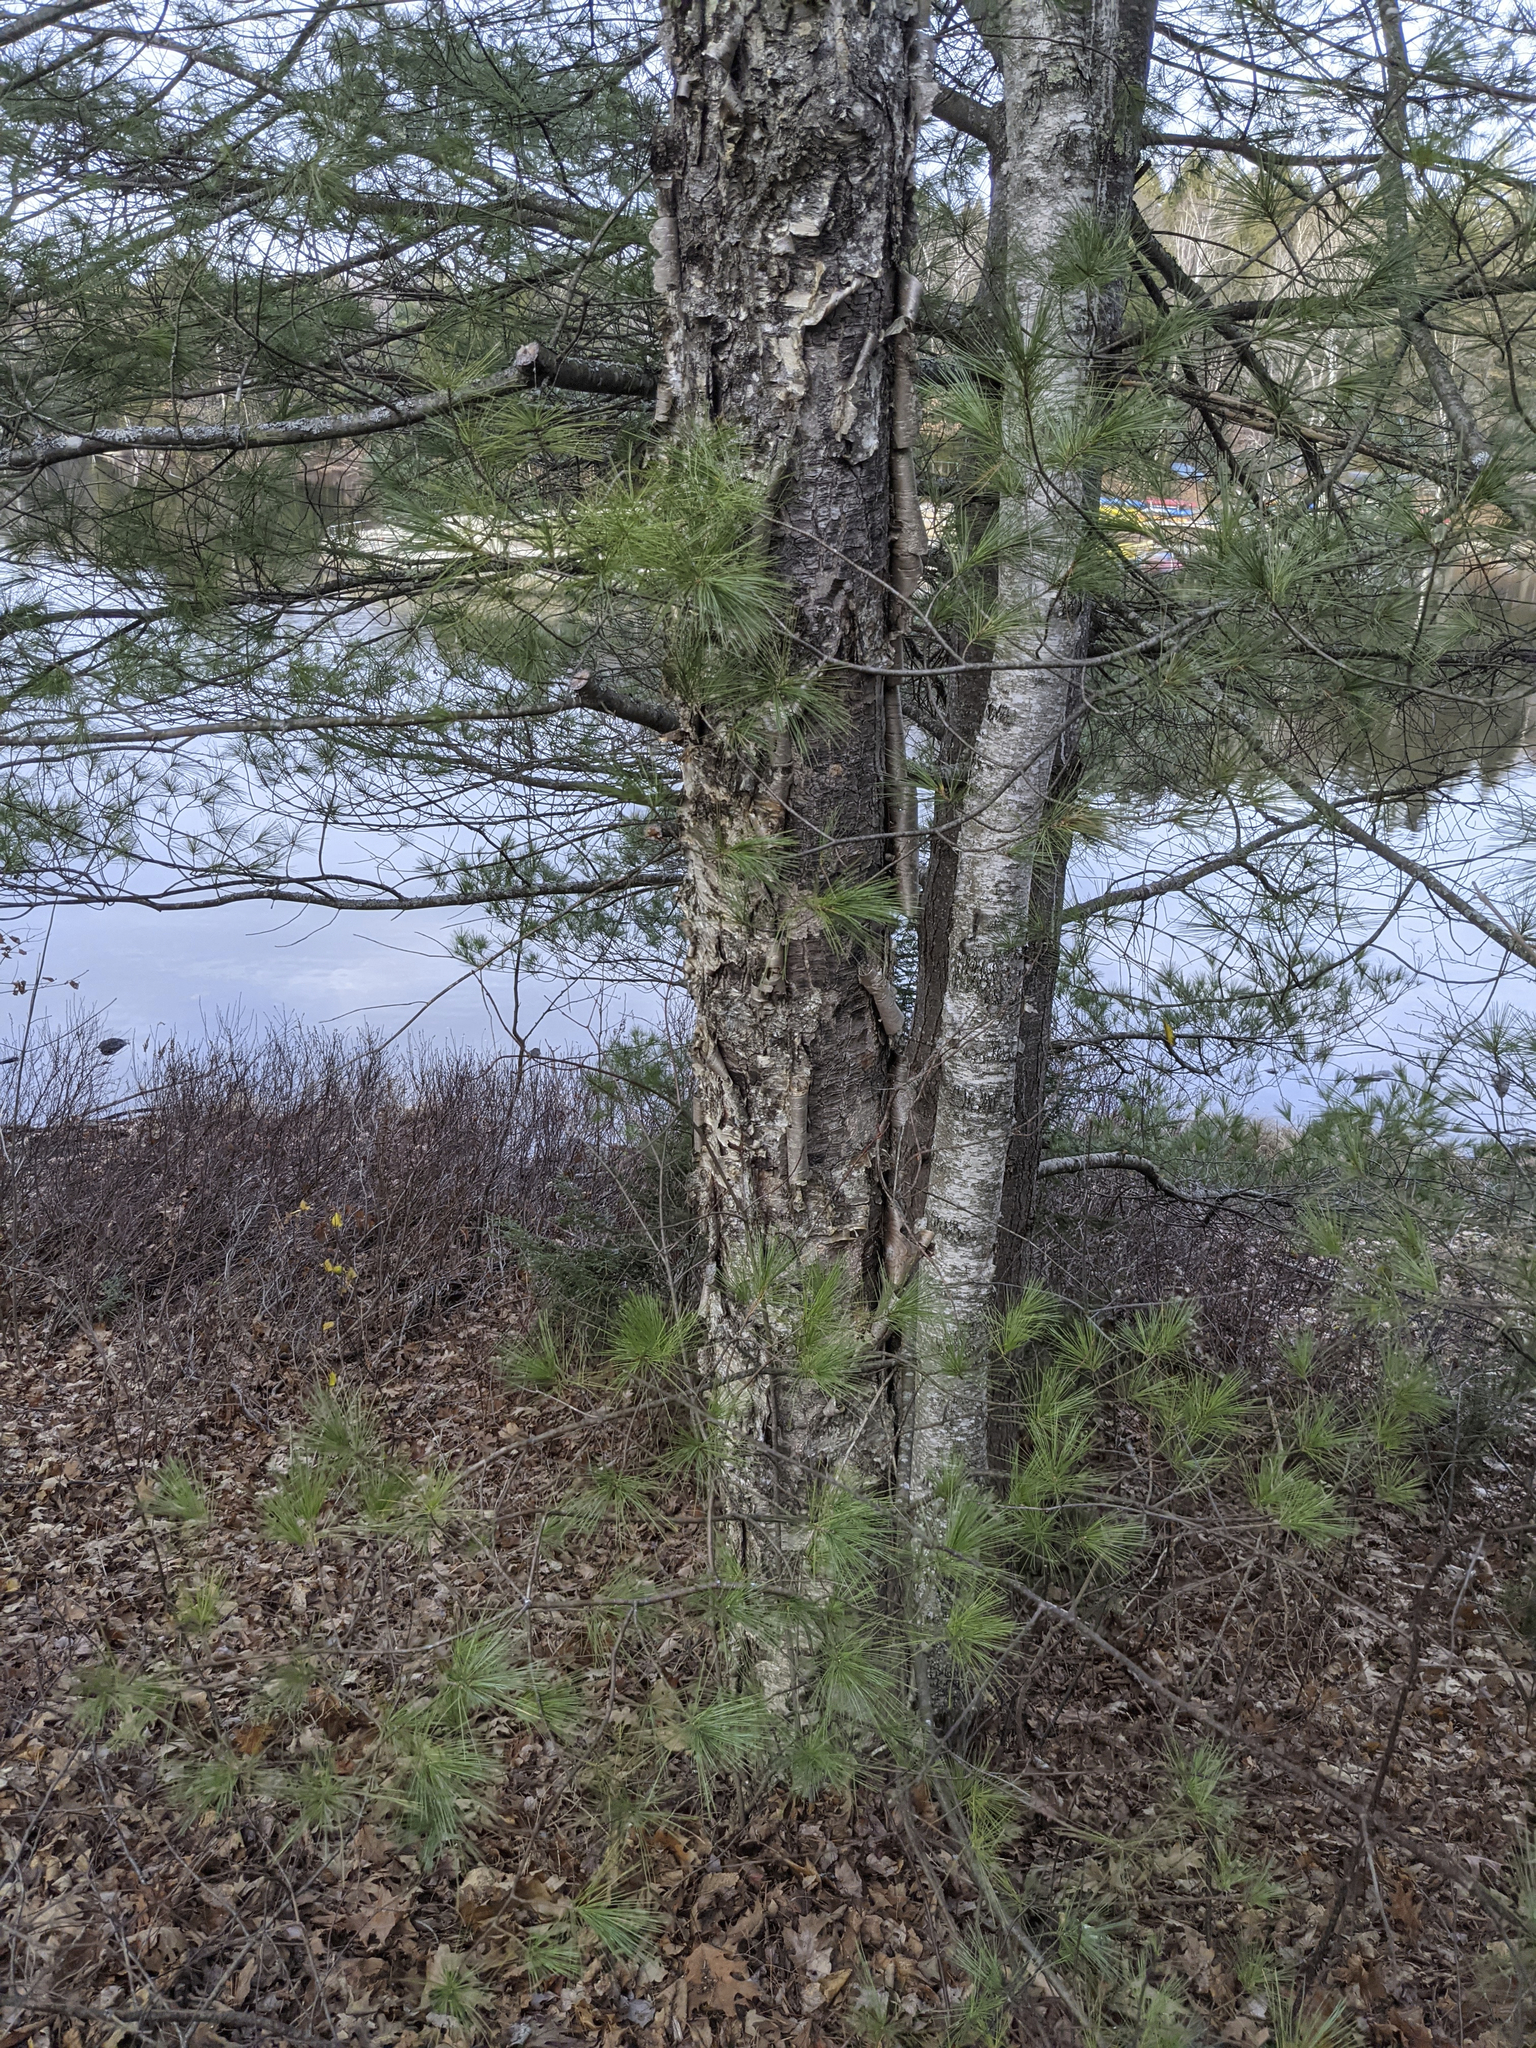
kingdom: Plantae
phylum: Tracheophyta
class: Magnoliopsida
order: Fagales
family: Betulaceae
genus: Betula
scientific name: Betula alleghaniensis
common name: Yellow birch
